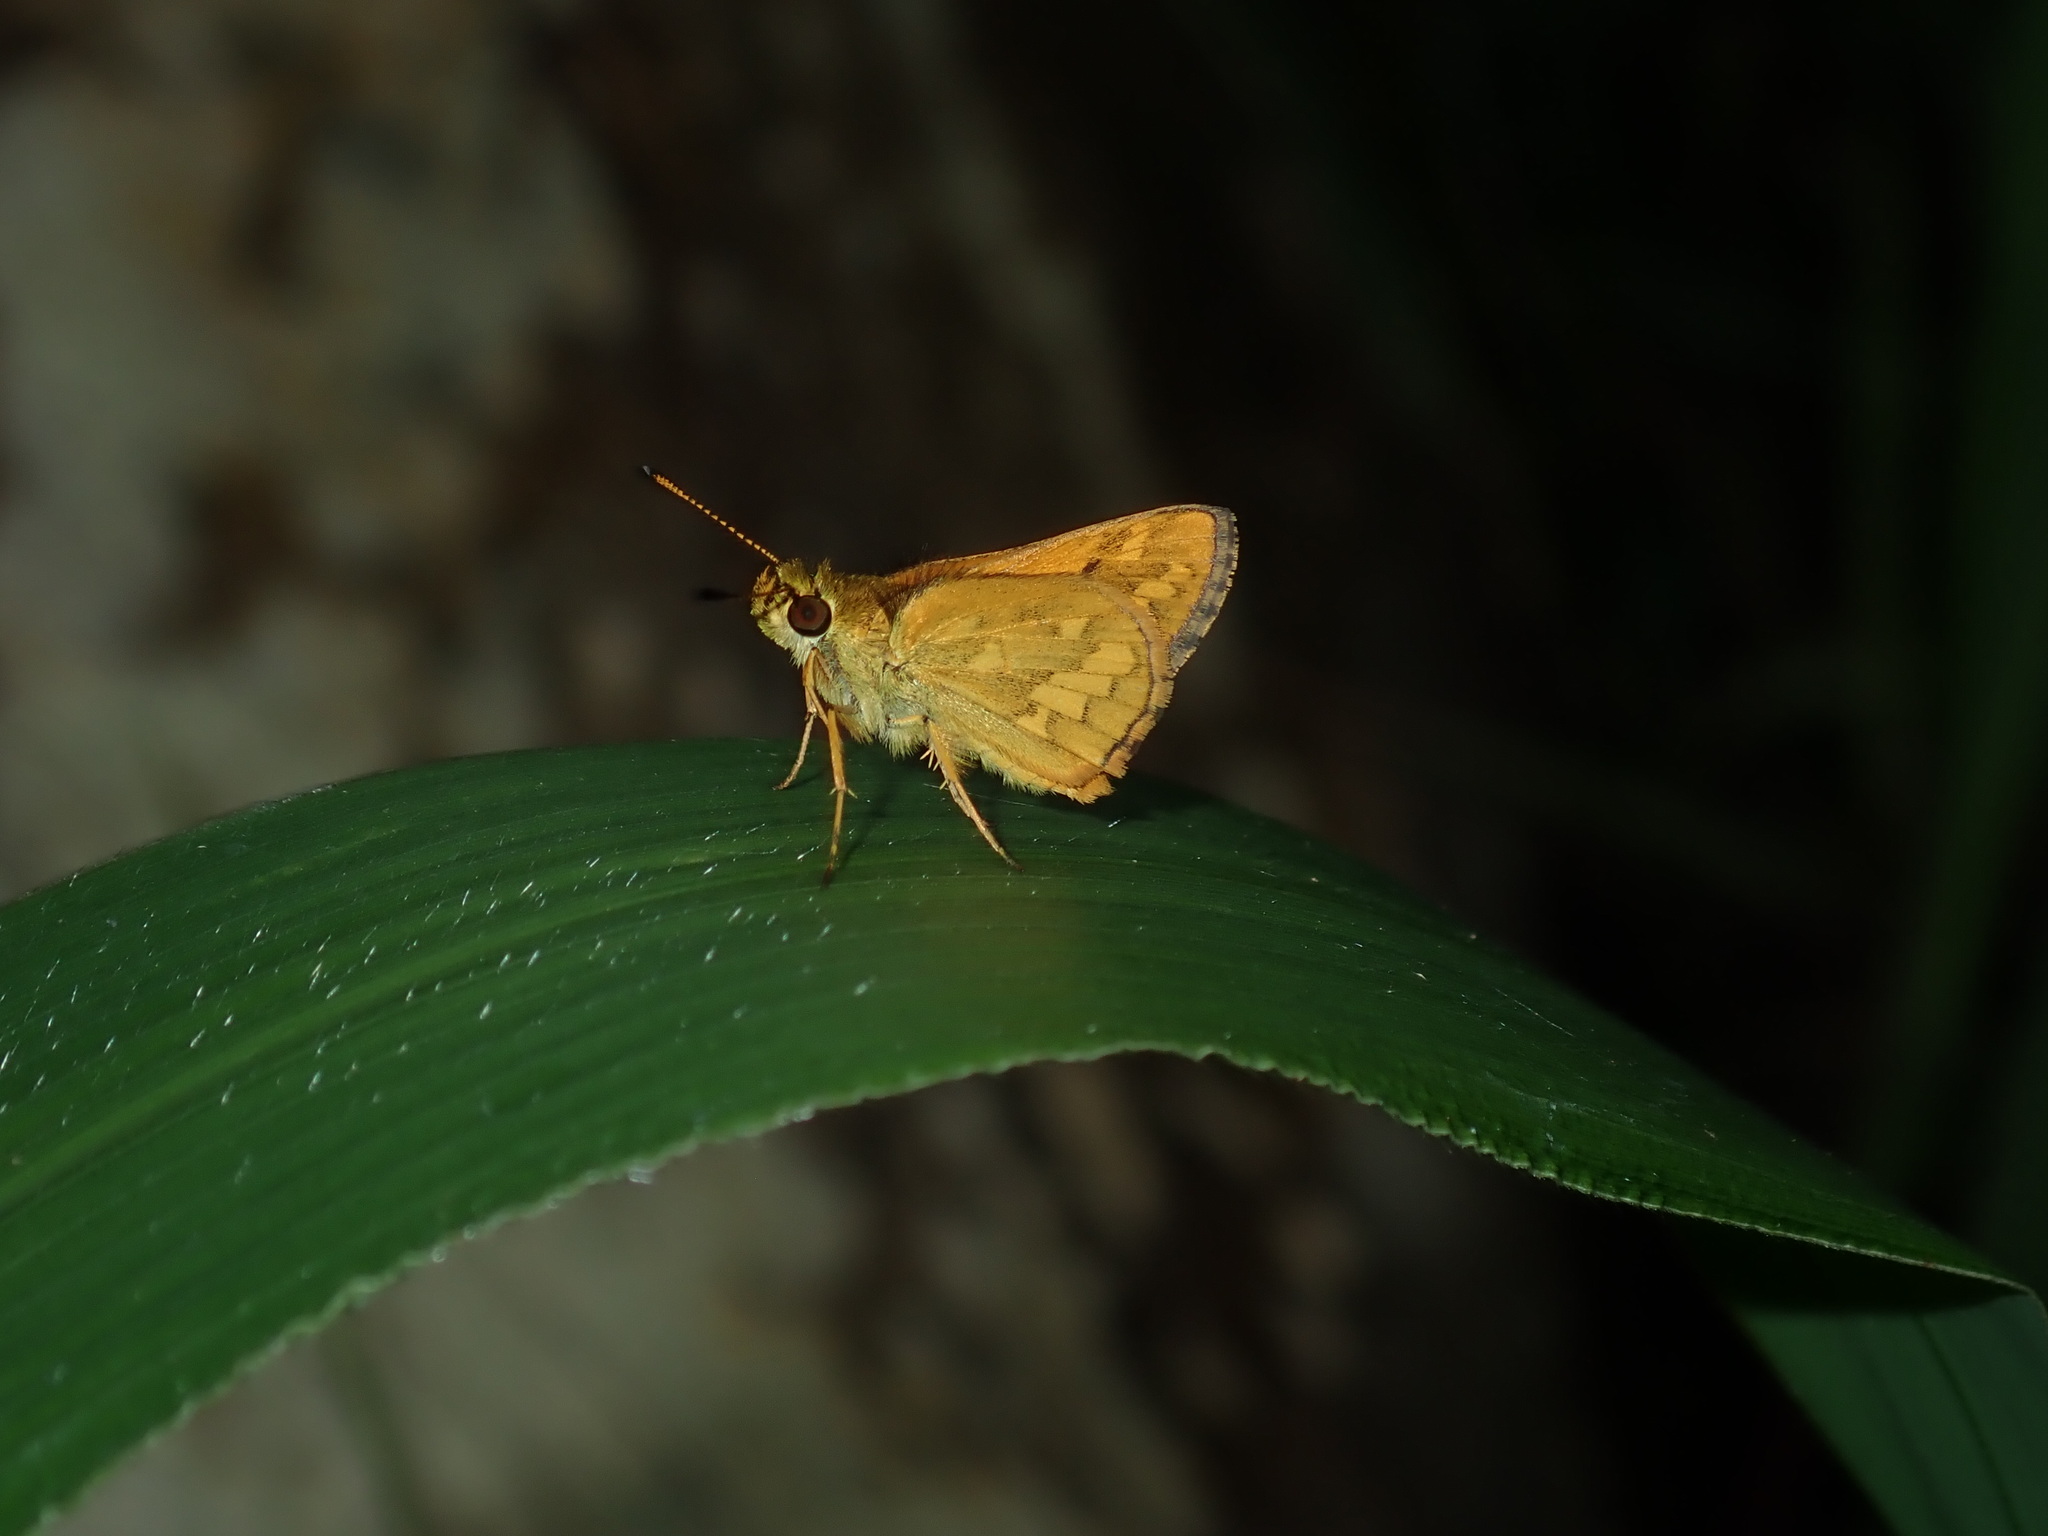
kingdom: Animalia
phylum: Arthropoda
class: Insecta
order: Lepidoptera
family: Hesperiidae
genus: Suniana
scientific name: Suniana sunias
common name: Wide-brand grass-dart
